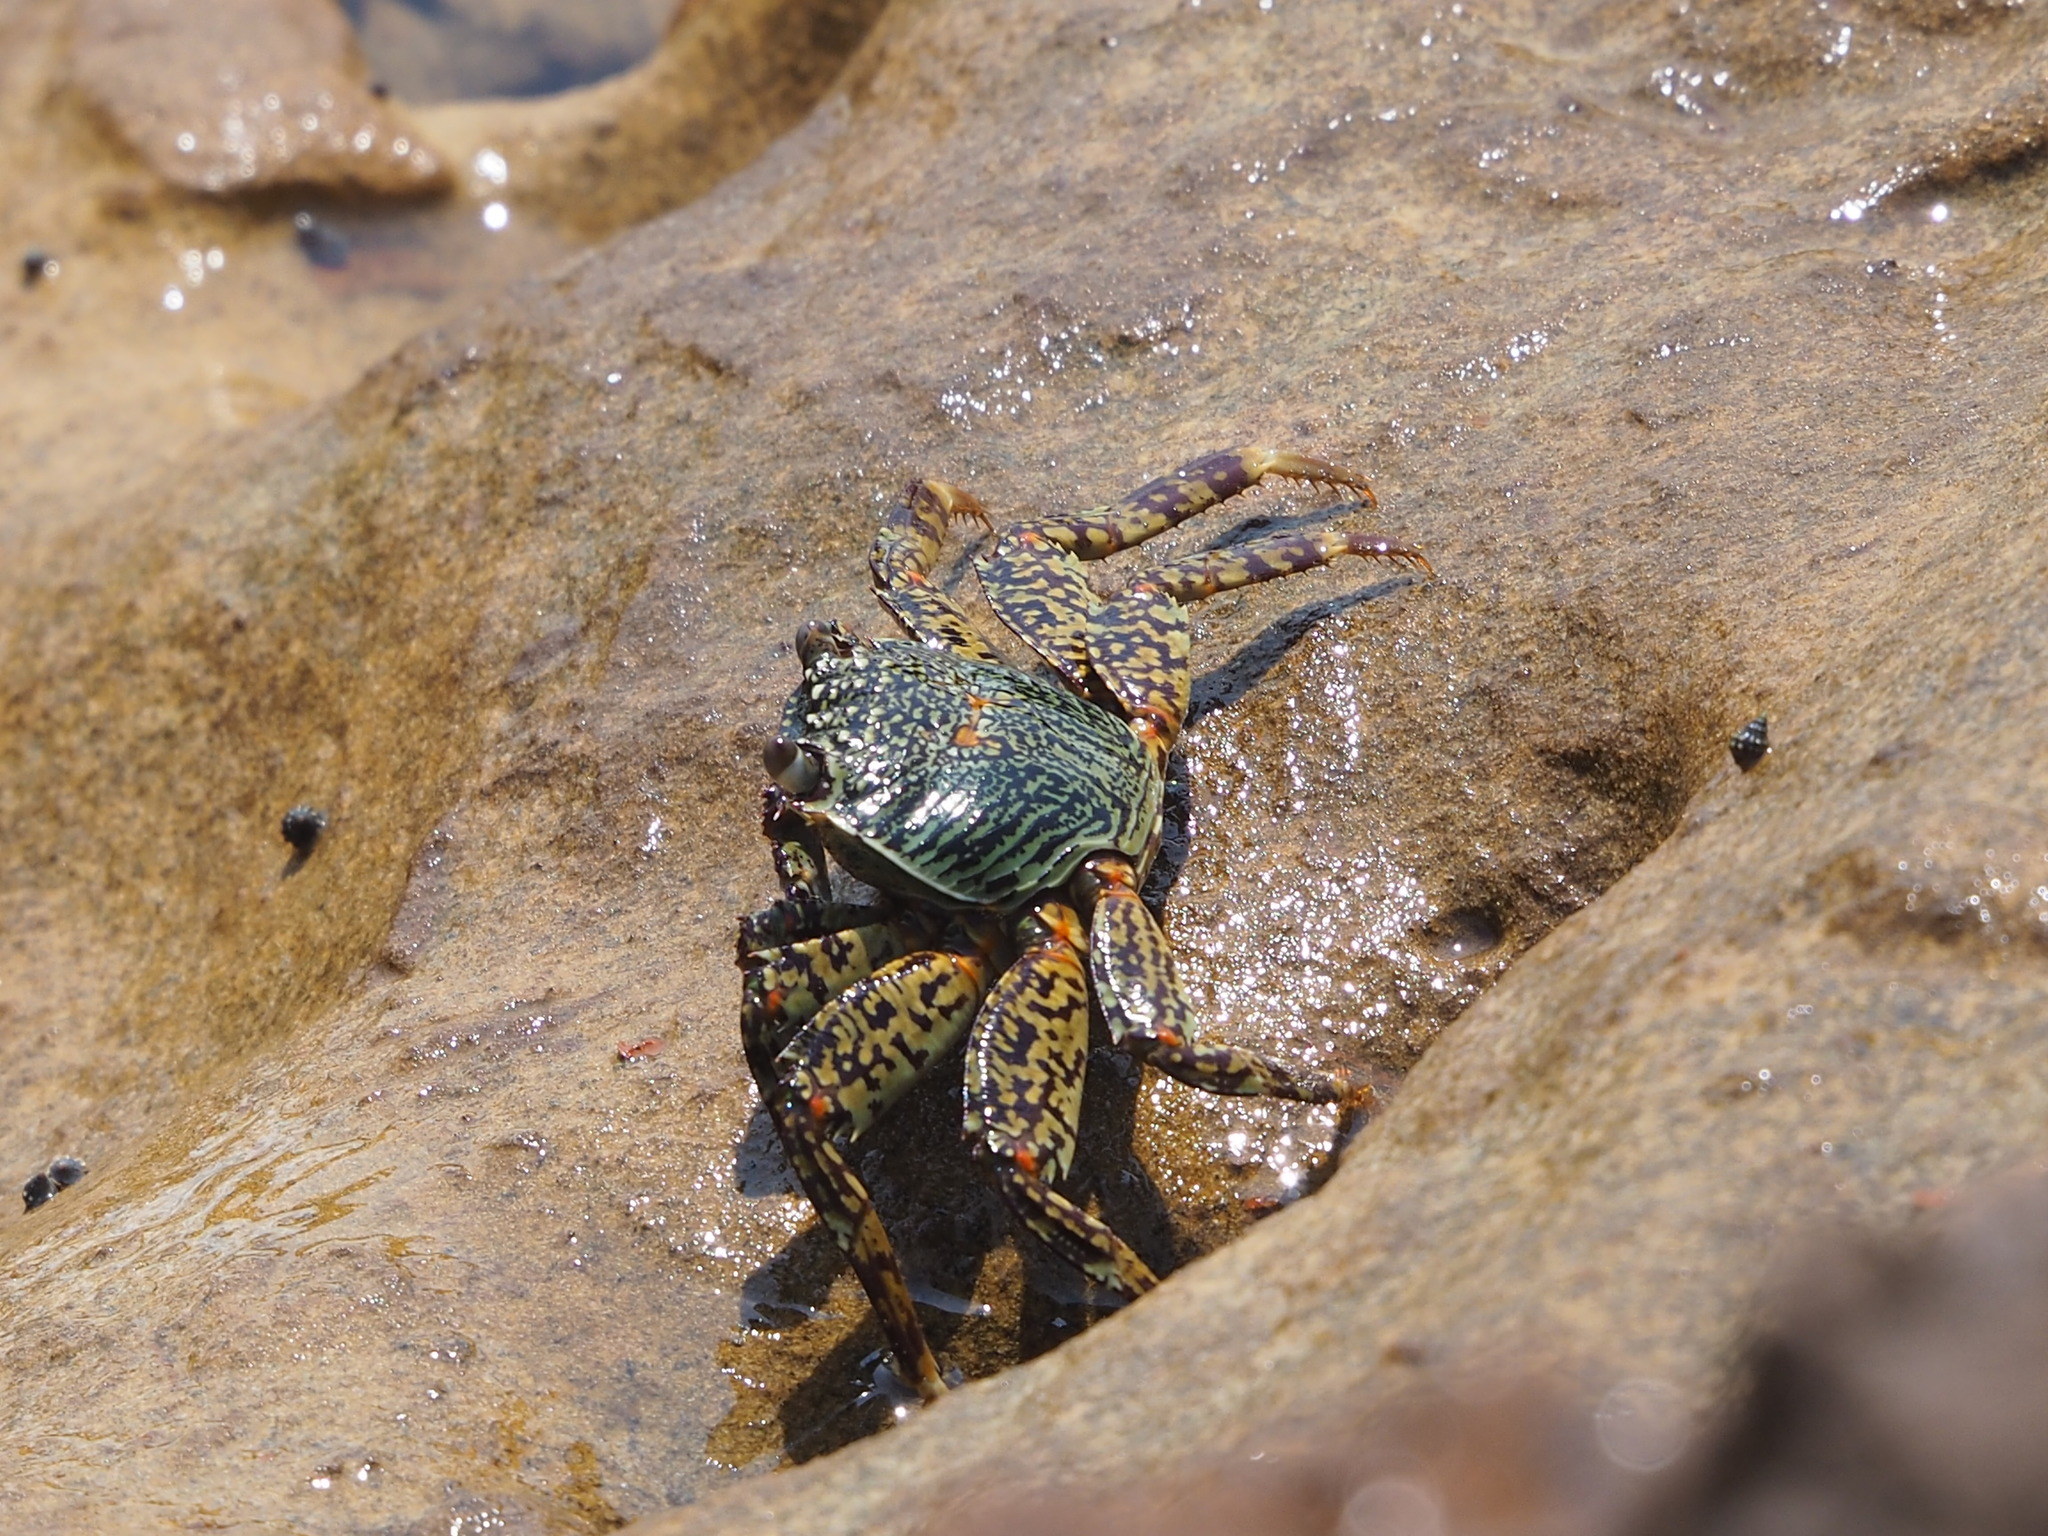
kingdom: Animalia
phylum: Arthropoda
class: Malacostraca
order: Decapoda
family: Grapsidae
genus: Grapsus
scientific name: Grapsus albolineatus
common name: Mottled lightfoot crab
